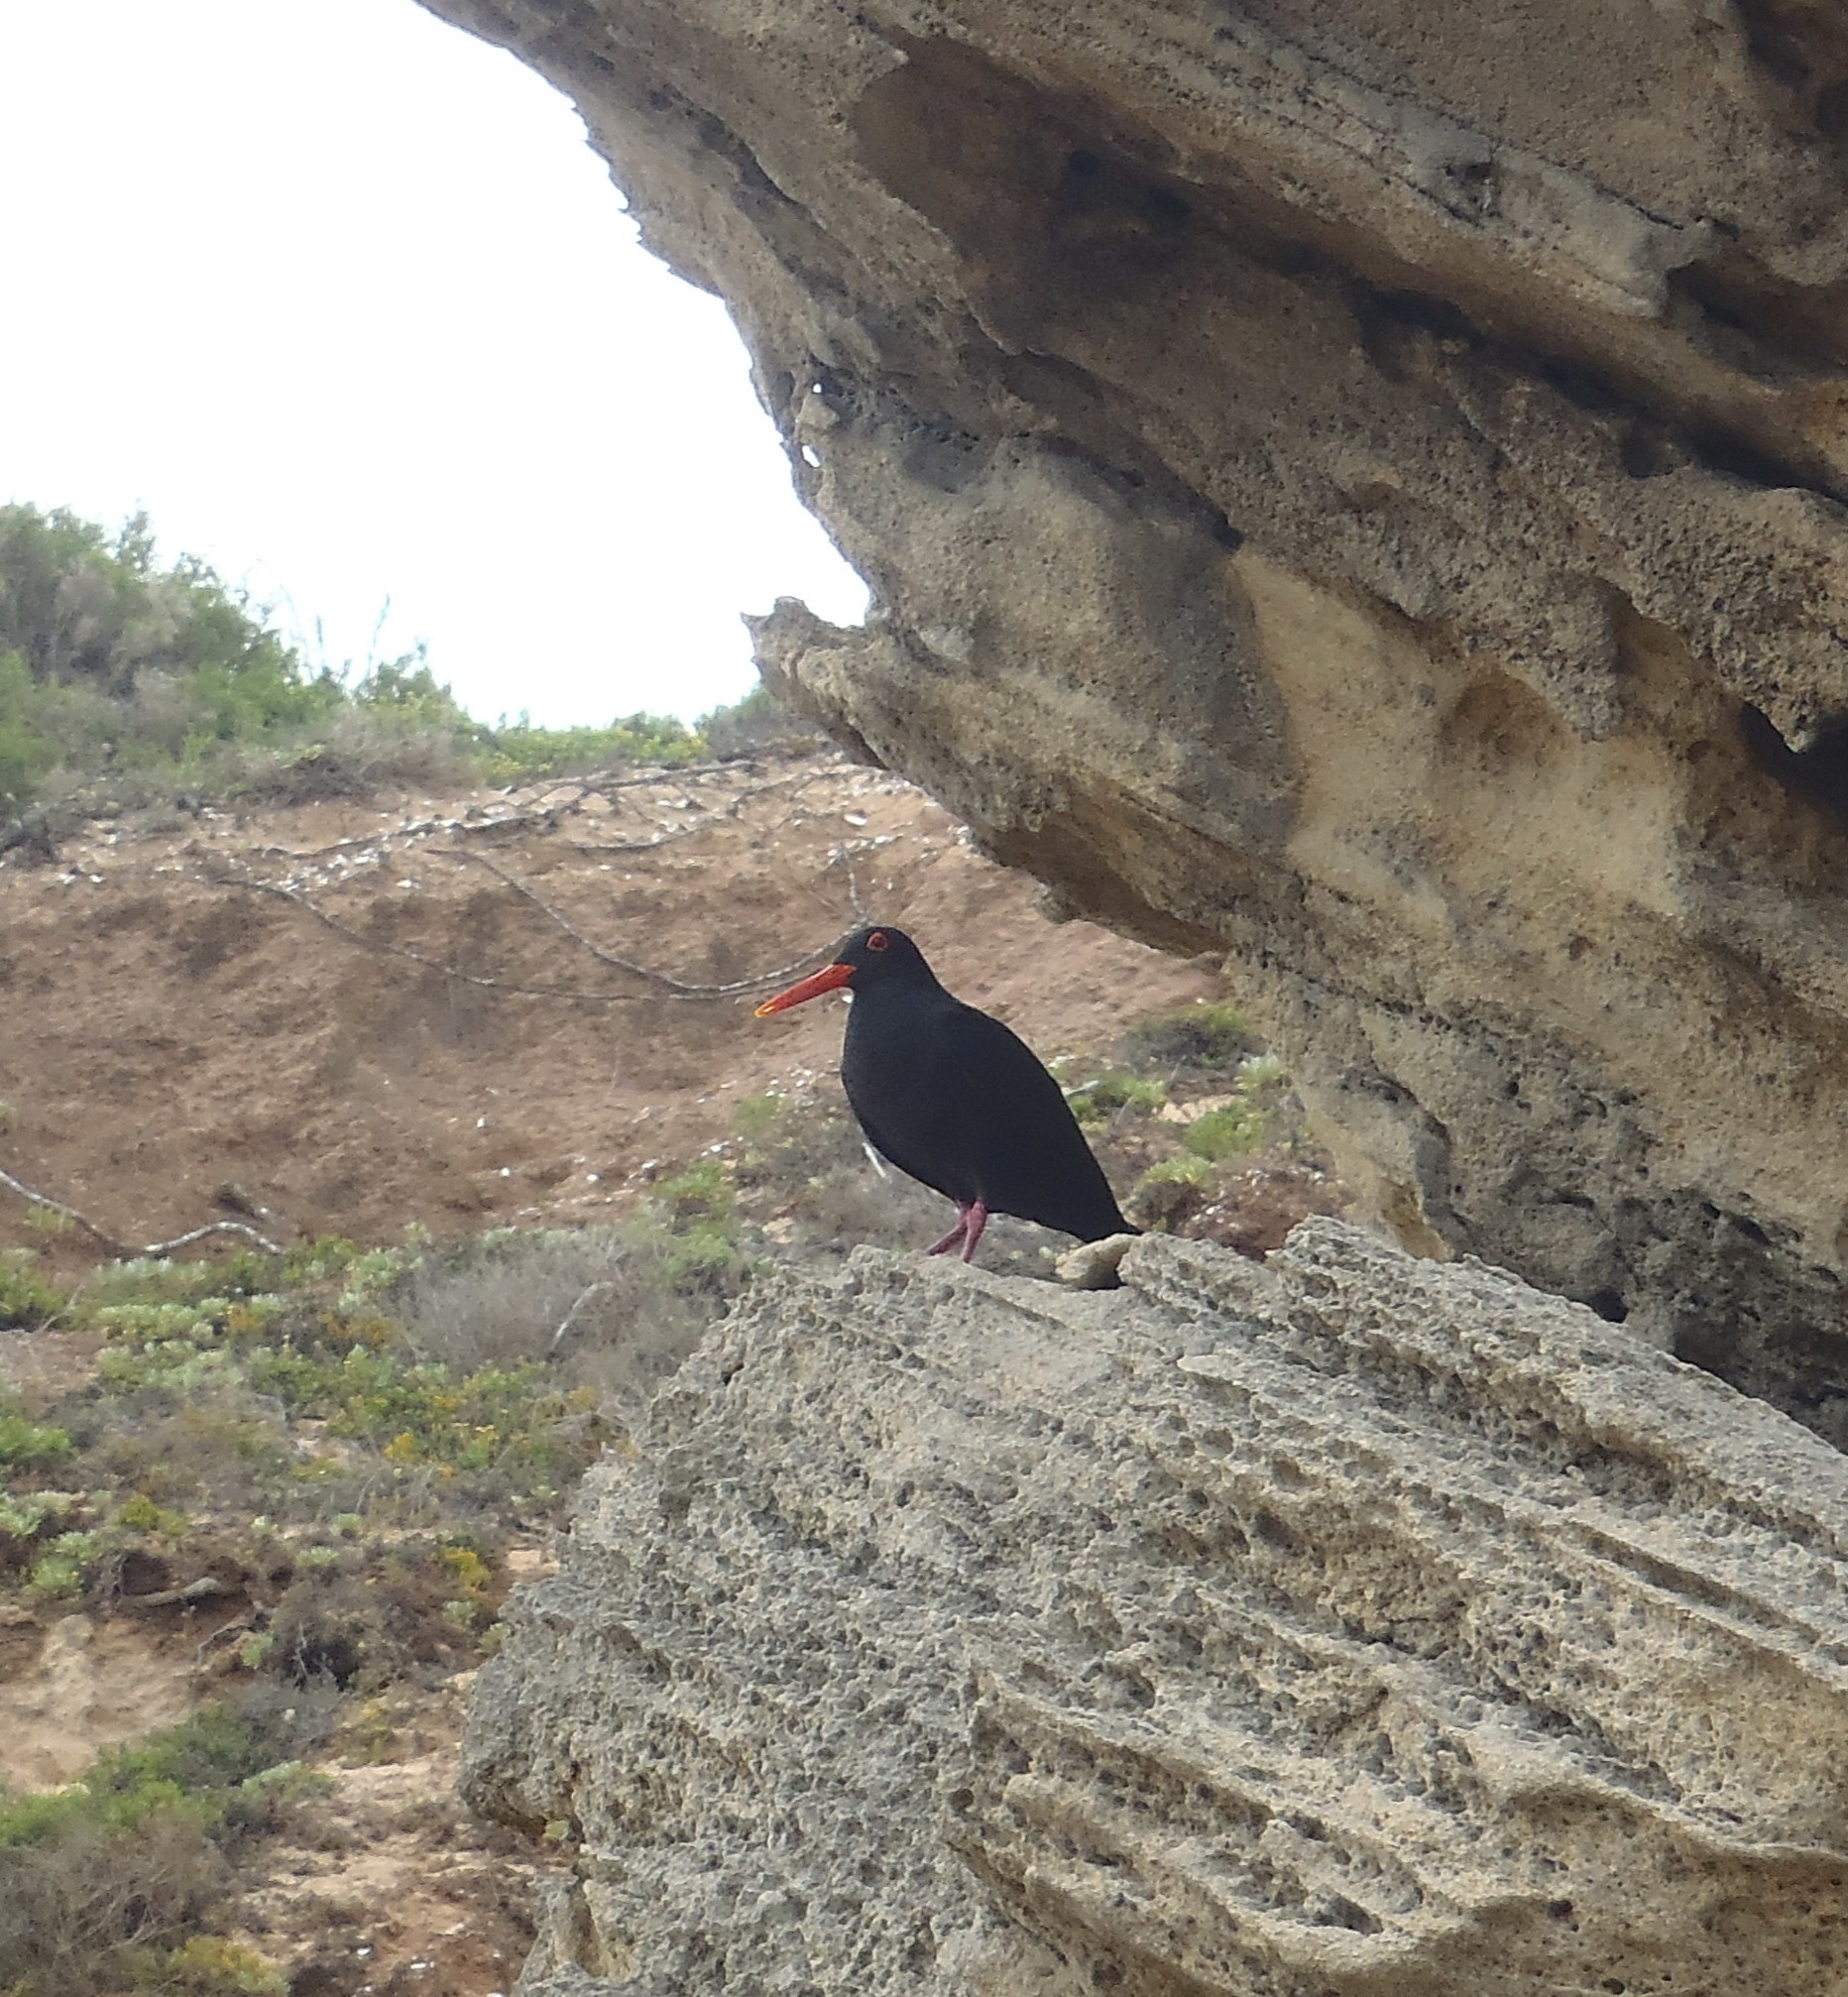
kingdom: Animalia
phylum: Chordata
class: Aves
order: Charadriiformes
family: Haematopodidae
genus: Haematopus
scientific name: Haematopus moquini
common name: African oystercatcher
